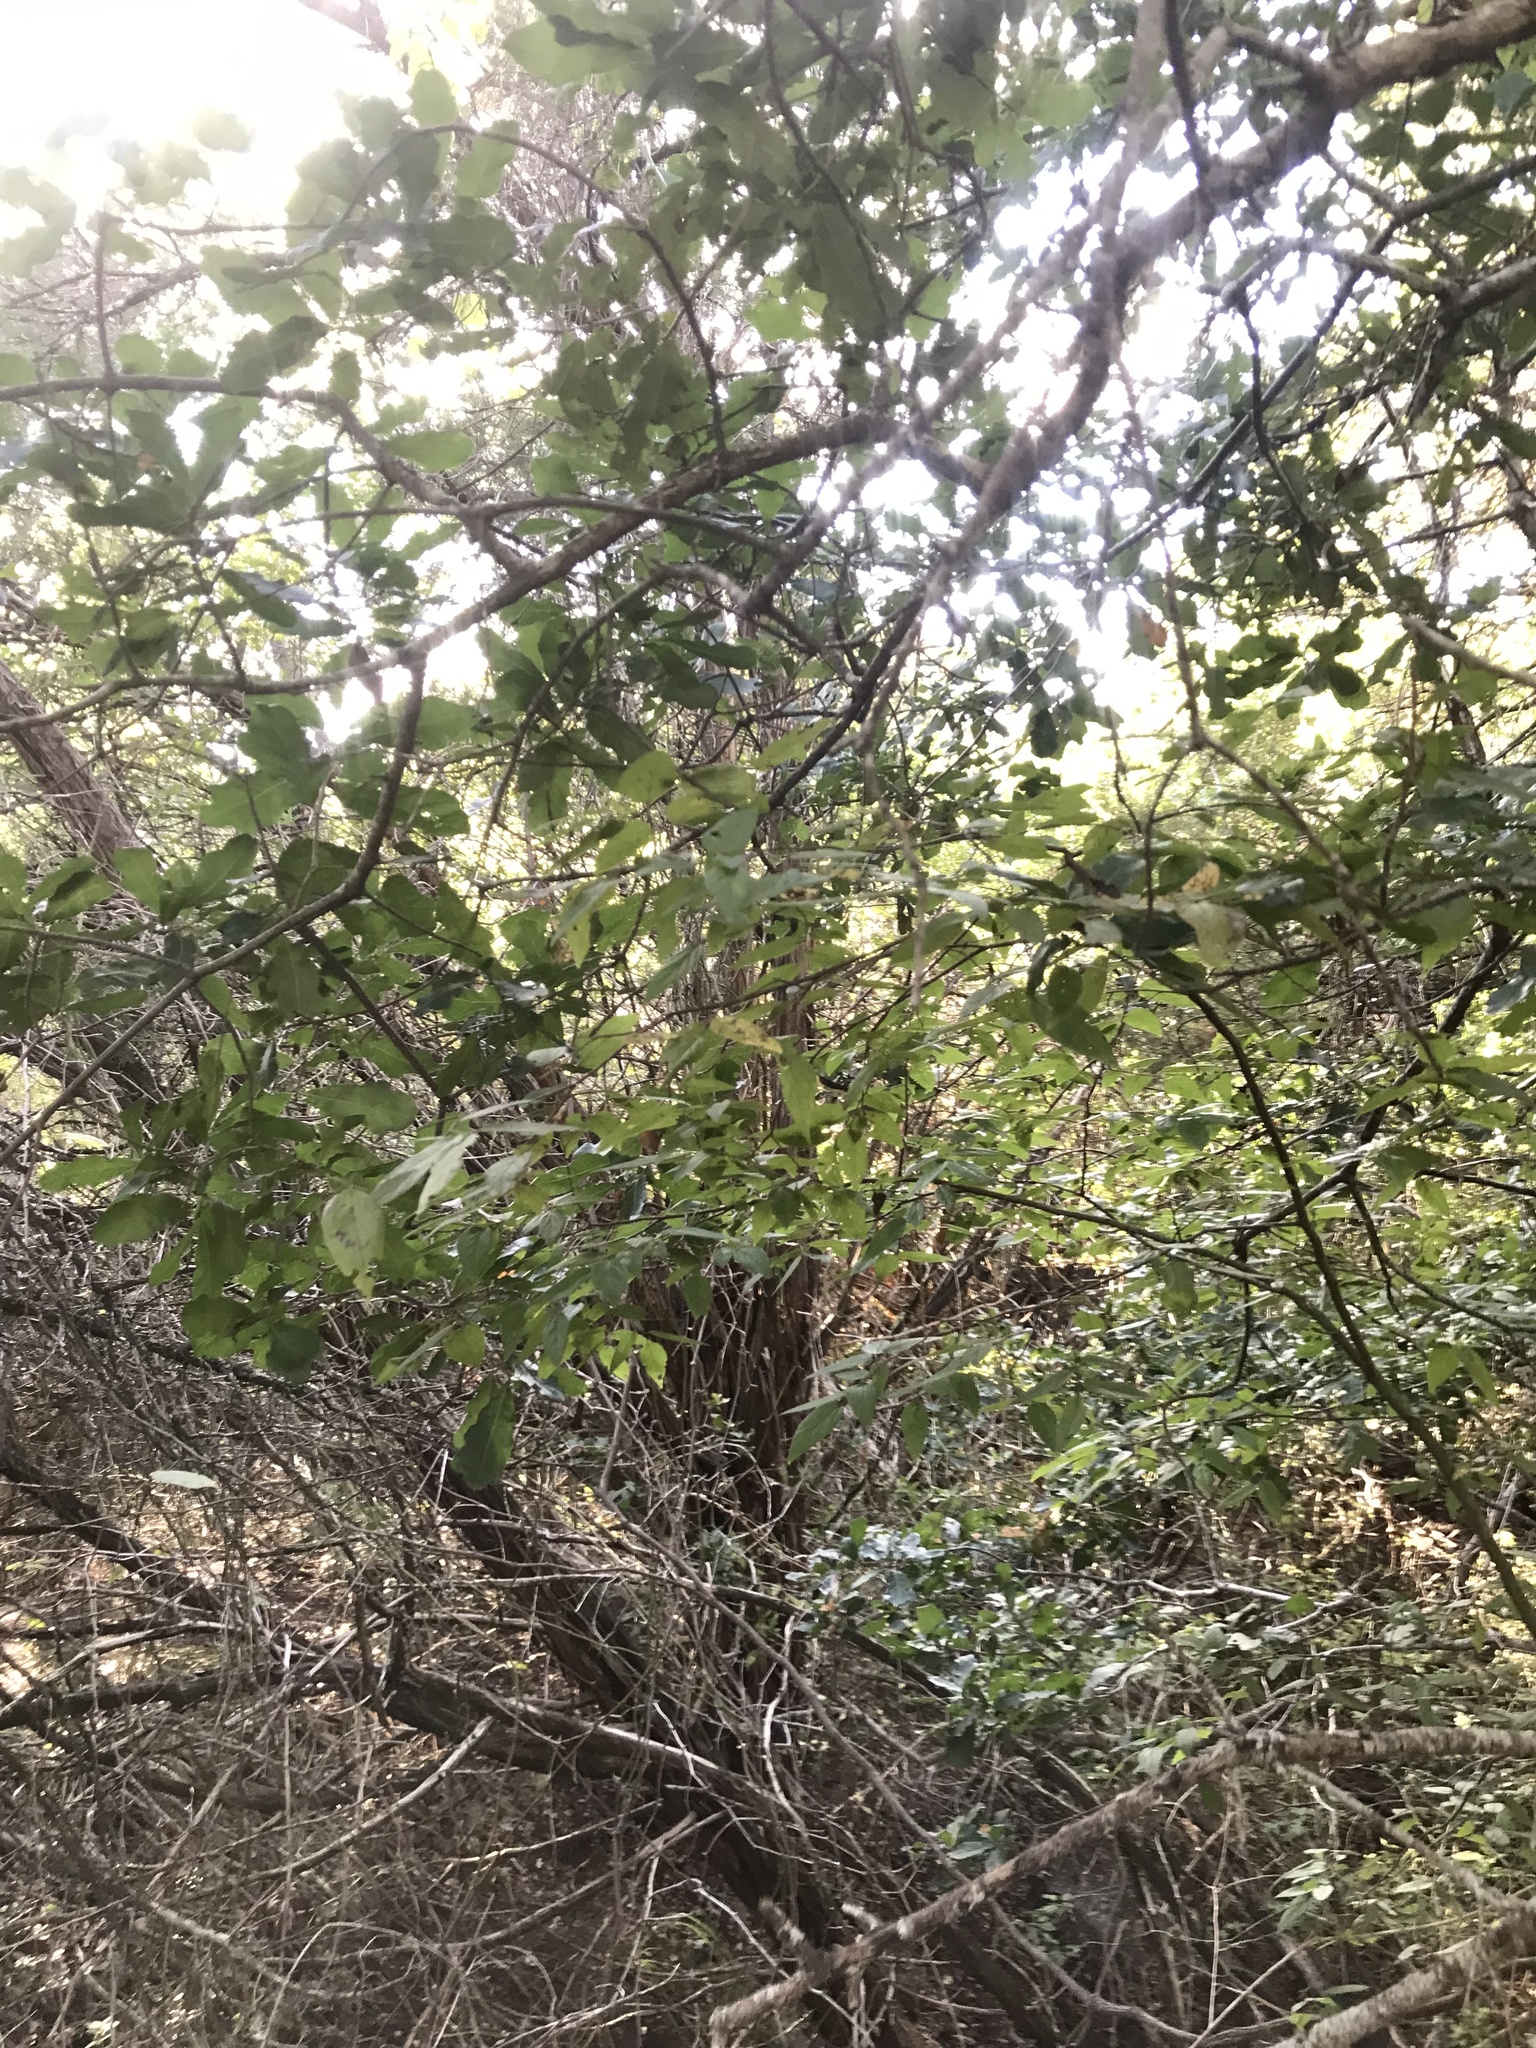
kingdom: Plantae
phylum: Tracheophyta
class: Magnoliopsida
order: Fagales
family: Fagaceae
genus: Quercus
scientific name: Quercus sinuata
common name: Durand oak
